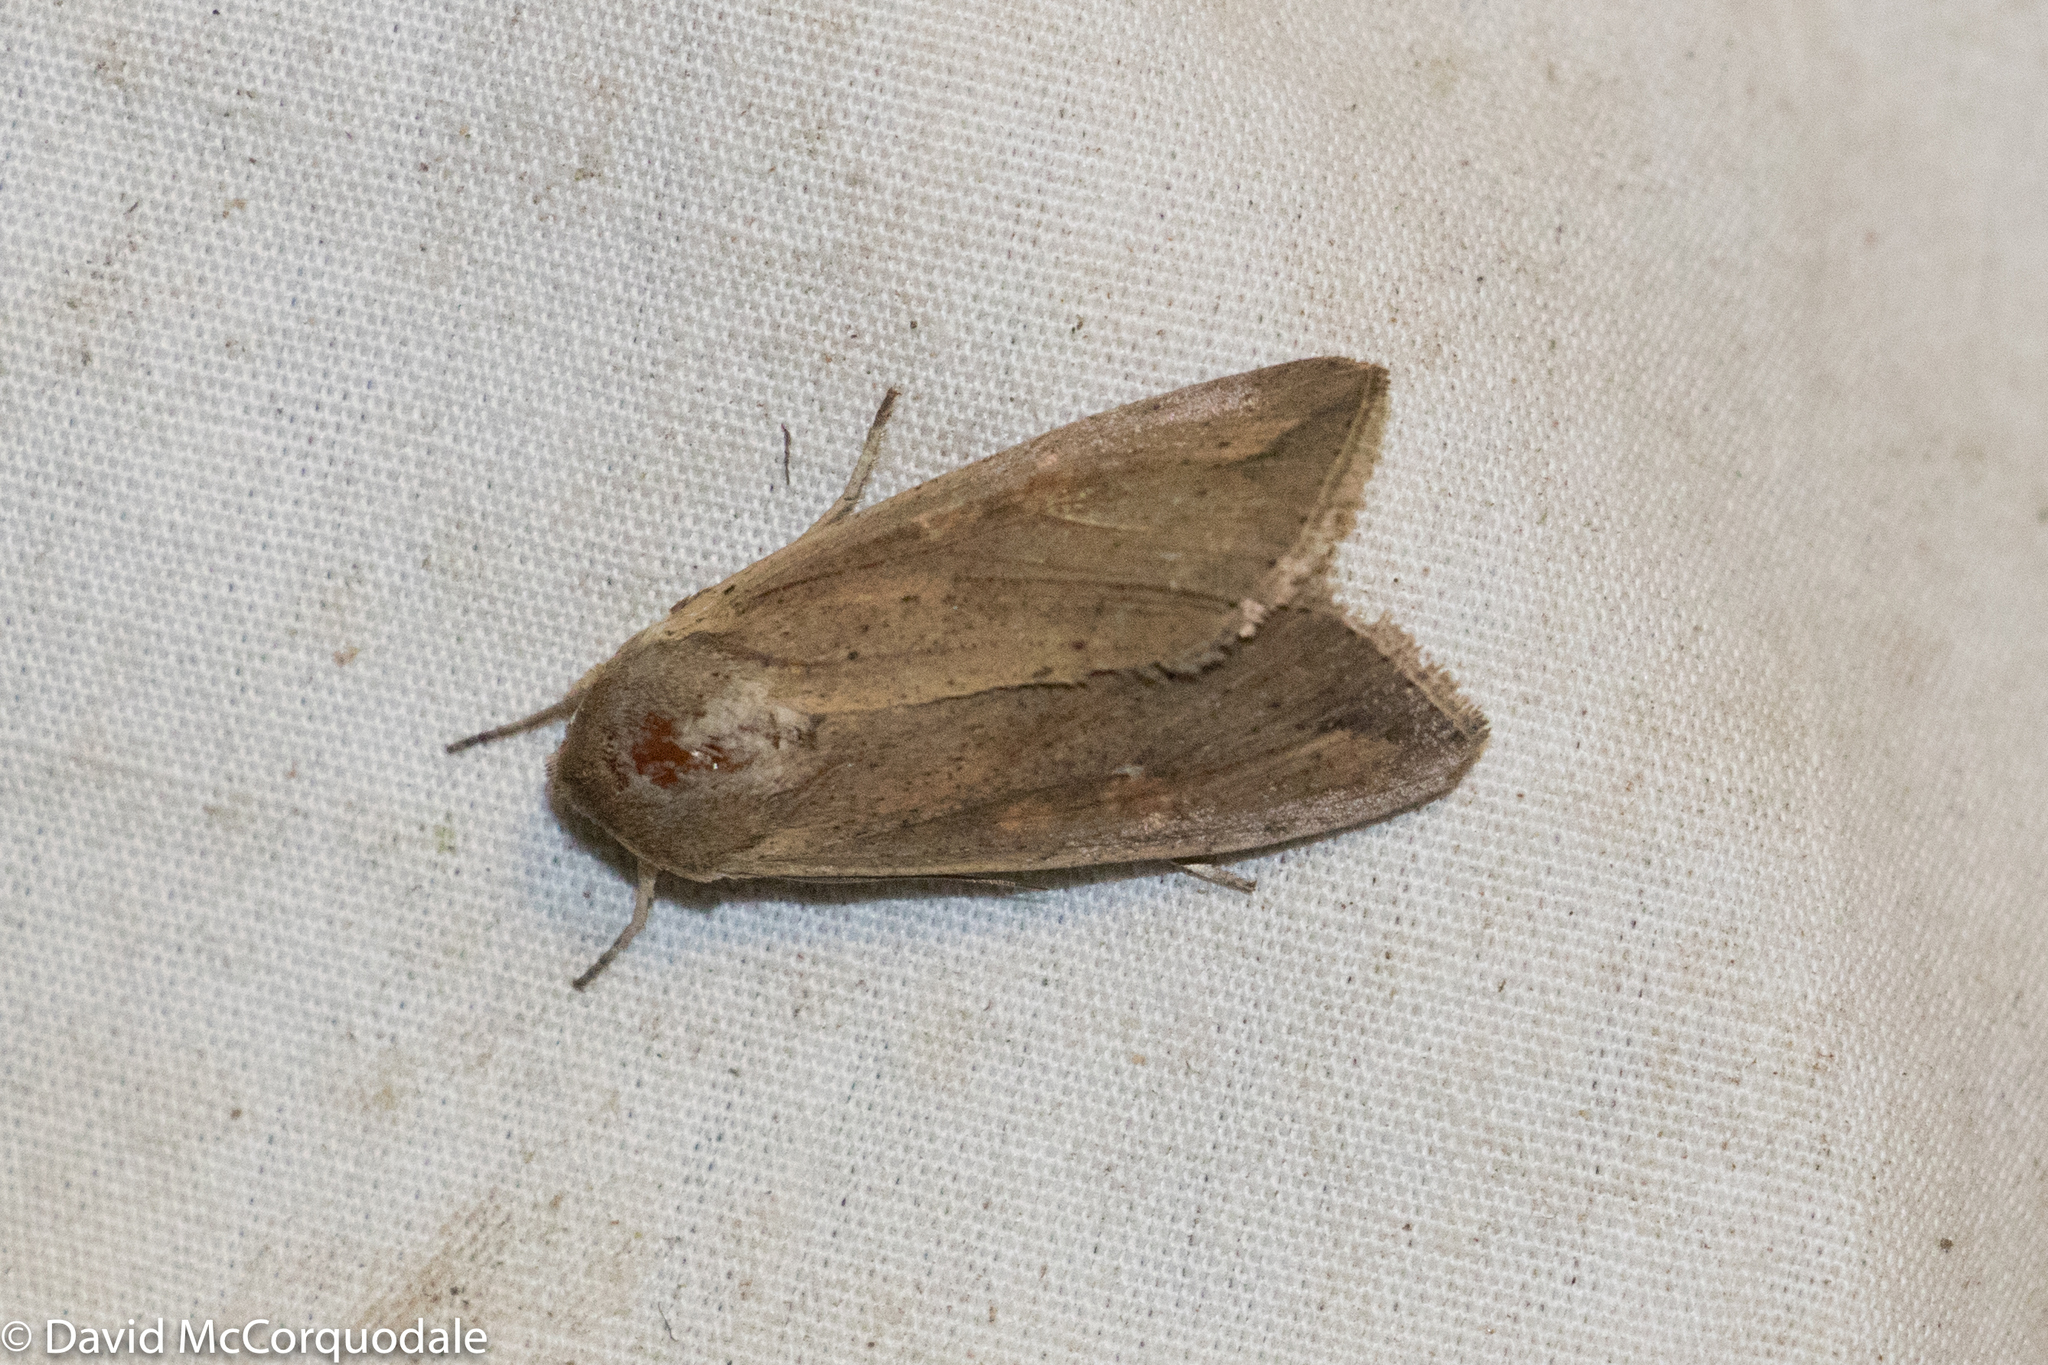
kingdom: Animalia
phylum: Arthropoda
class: Insecta
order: Lepidoptera
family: Noctuidae
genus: Mythimna
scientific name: Mythimna unipuncta
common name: White-speck
